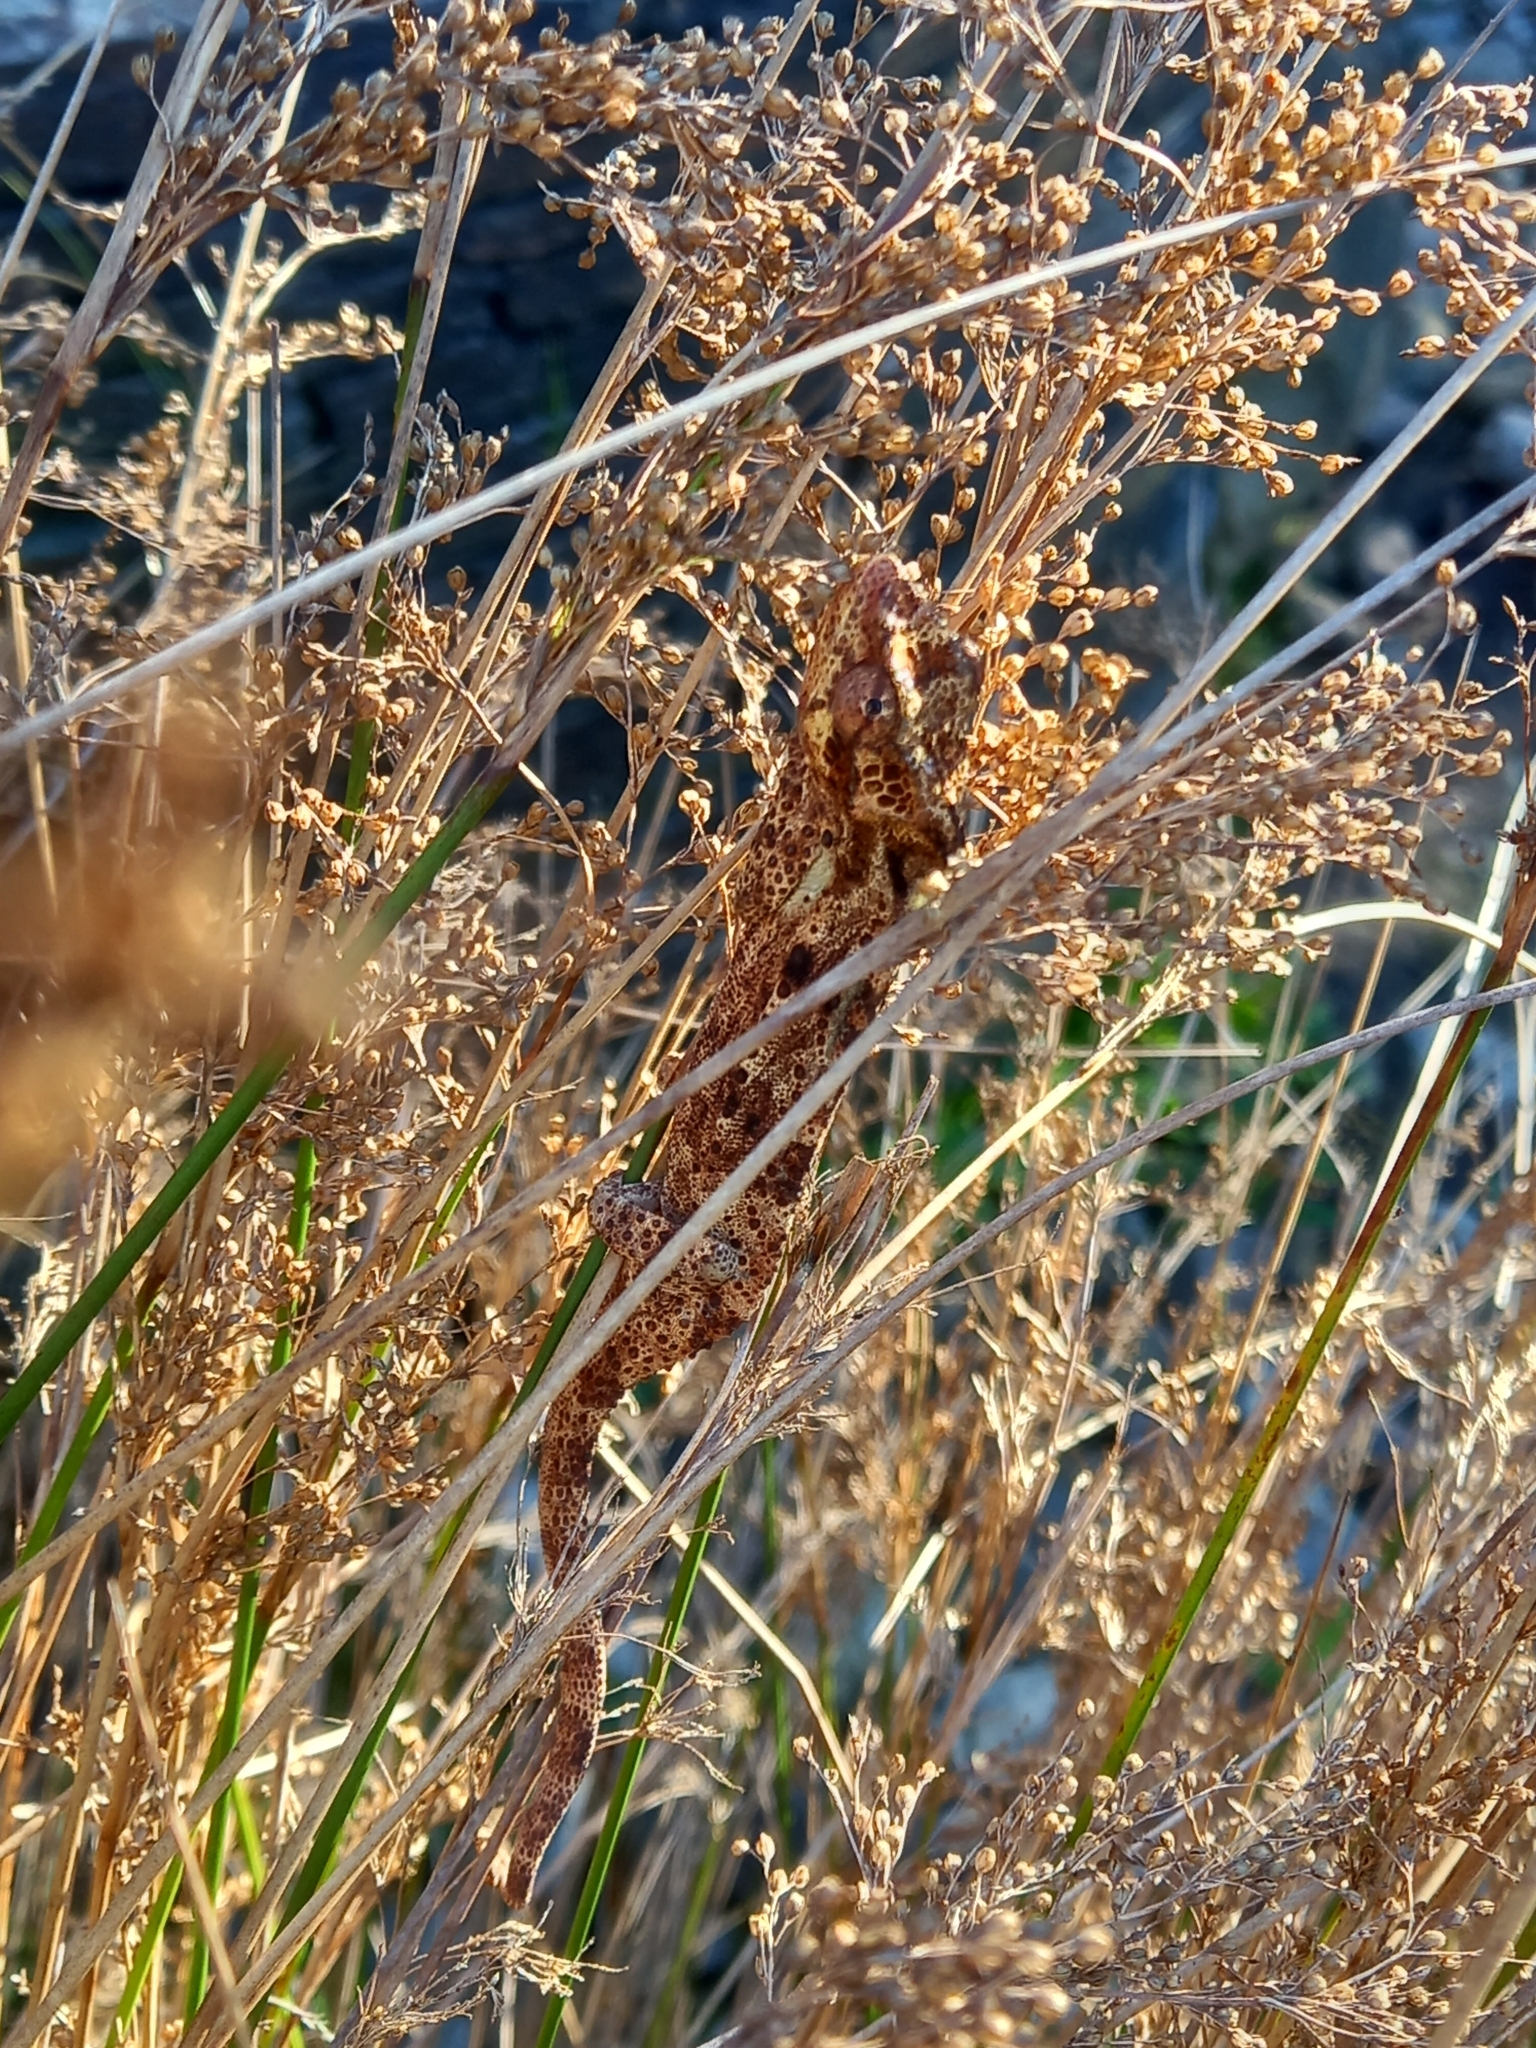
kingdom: Animalia
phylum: Chordata
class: Squamata
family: Chamaeleonidae
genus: Bradypodion
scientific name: Bradypodion damaranum
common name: Knysna dwarf chameleon
